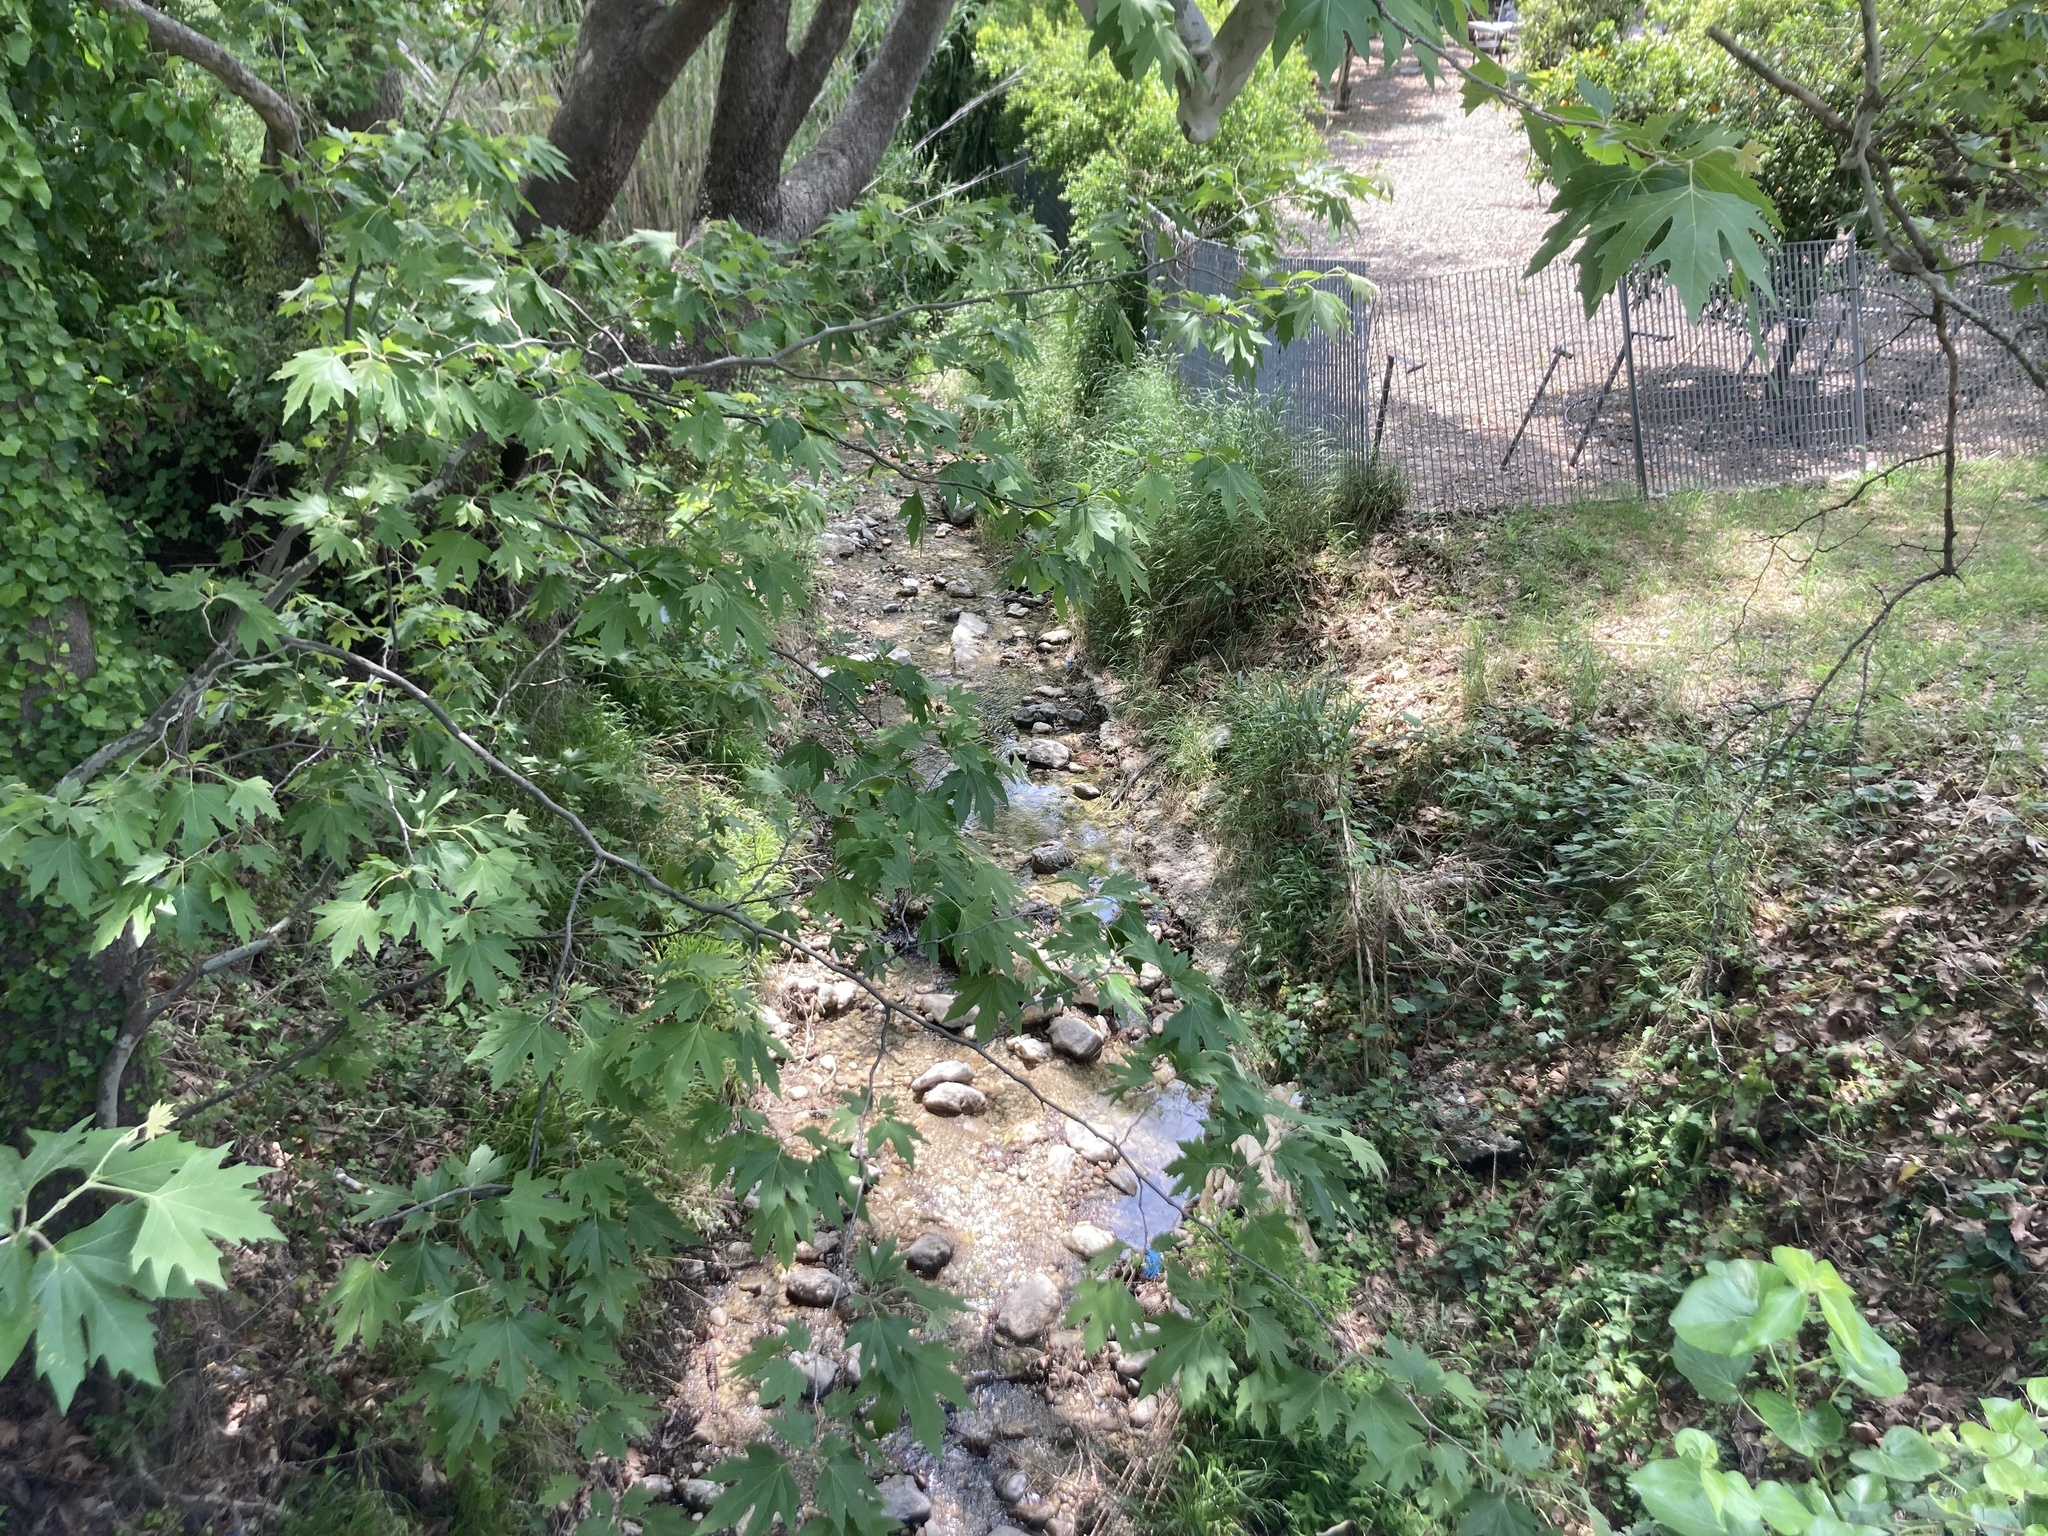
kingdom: Plantae
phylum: Tracheophyta
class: Magnoliopsida
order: Proteales
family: Platanaceae
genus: Platanus
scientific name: Platanus orientalis
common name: Oriental plane
